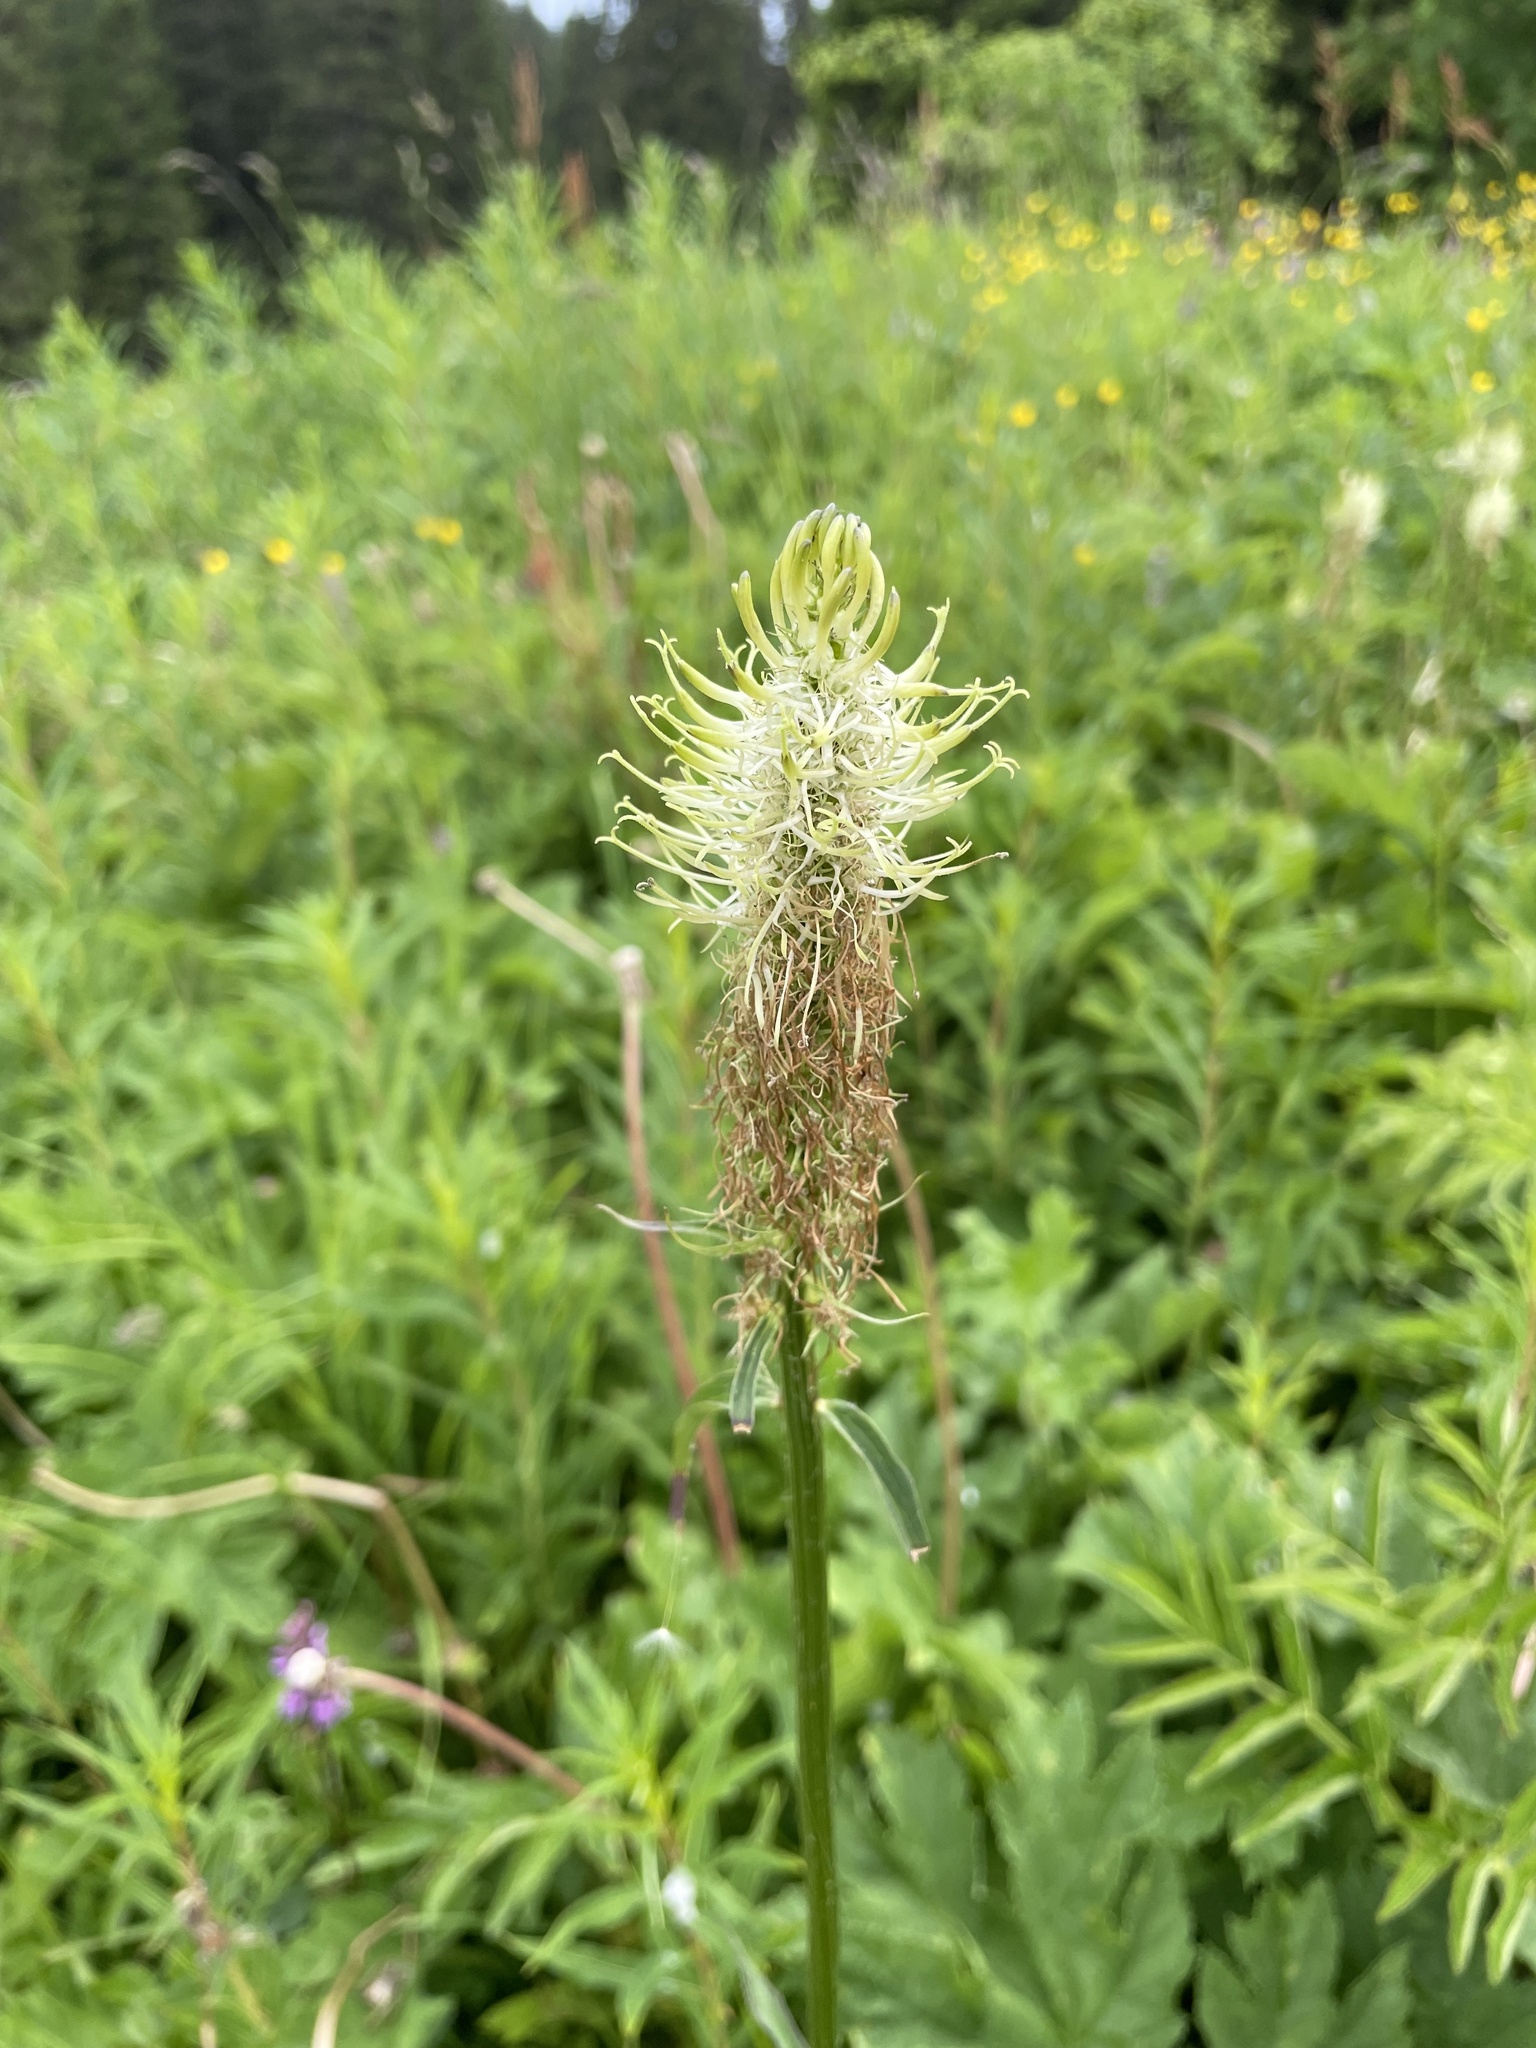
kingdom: Plantae
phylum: Tracheophyta
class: Magnoliopsida
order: Asterales
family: Campanulaceae
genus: Phyteuma
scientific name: Phyteuma spicatum
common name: Spiked rampion
